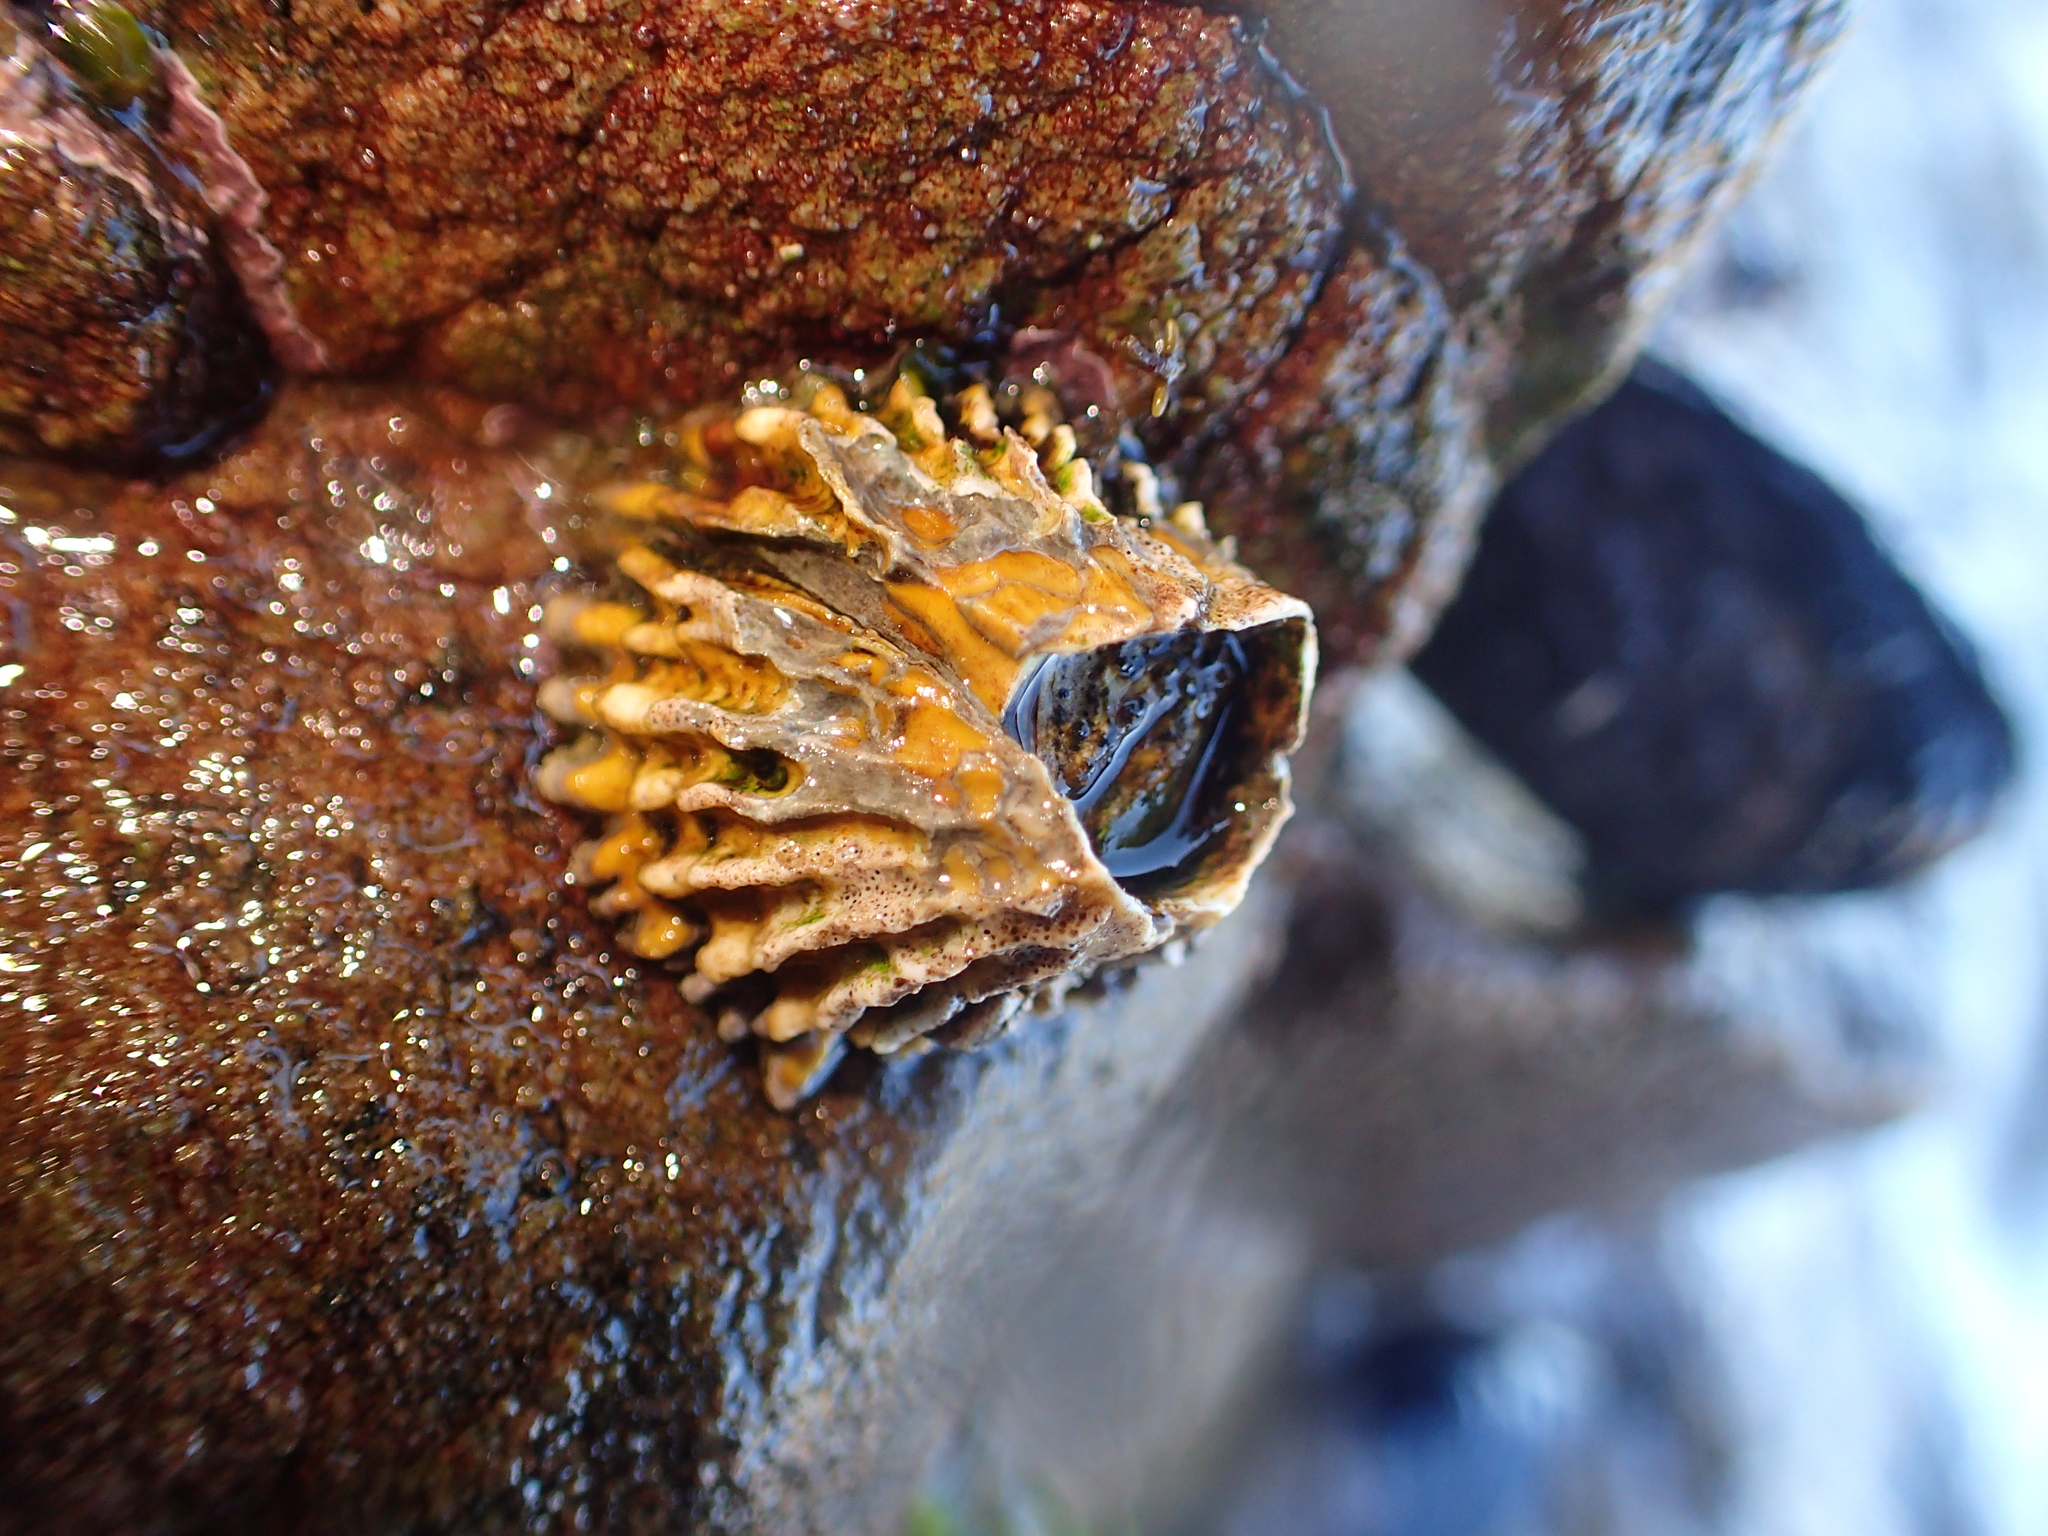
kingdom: Animalia
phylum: Arthropoda
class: Maxillopoda
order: Sessilia
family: Tetraclitidae
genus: Epopella
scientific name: Epopella plicata
